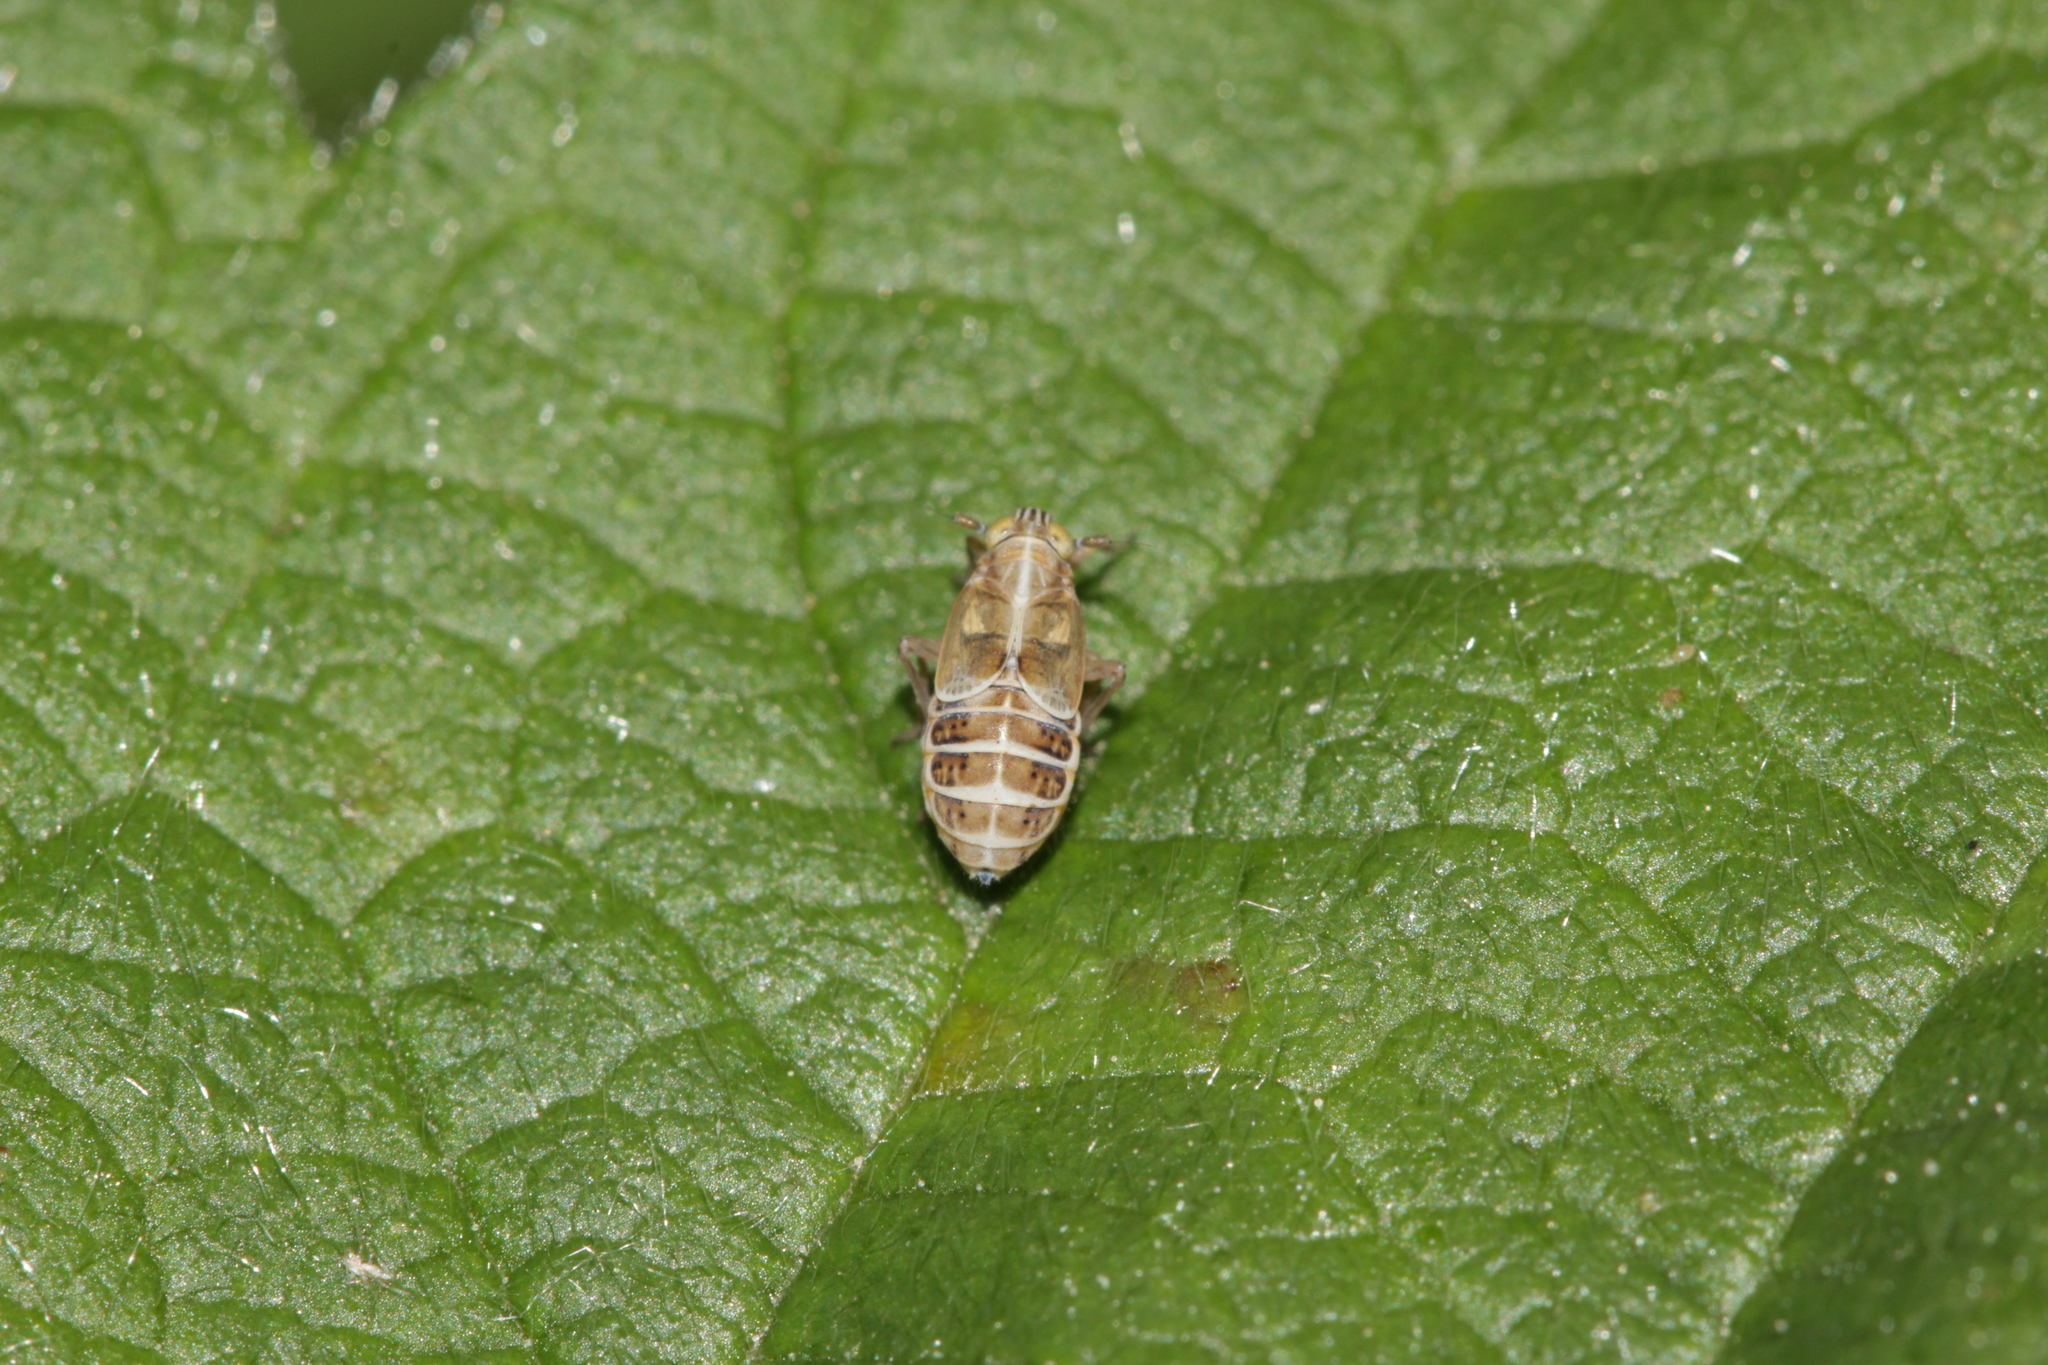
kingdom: Animalia
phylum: Arthropoda
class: Insecta
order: Hemiptera
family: Delphacidae
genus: Dicranotropis
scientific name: Dicranotropis hamata
